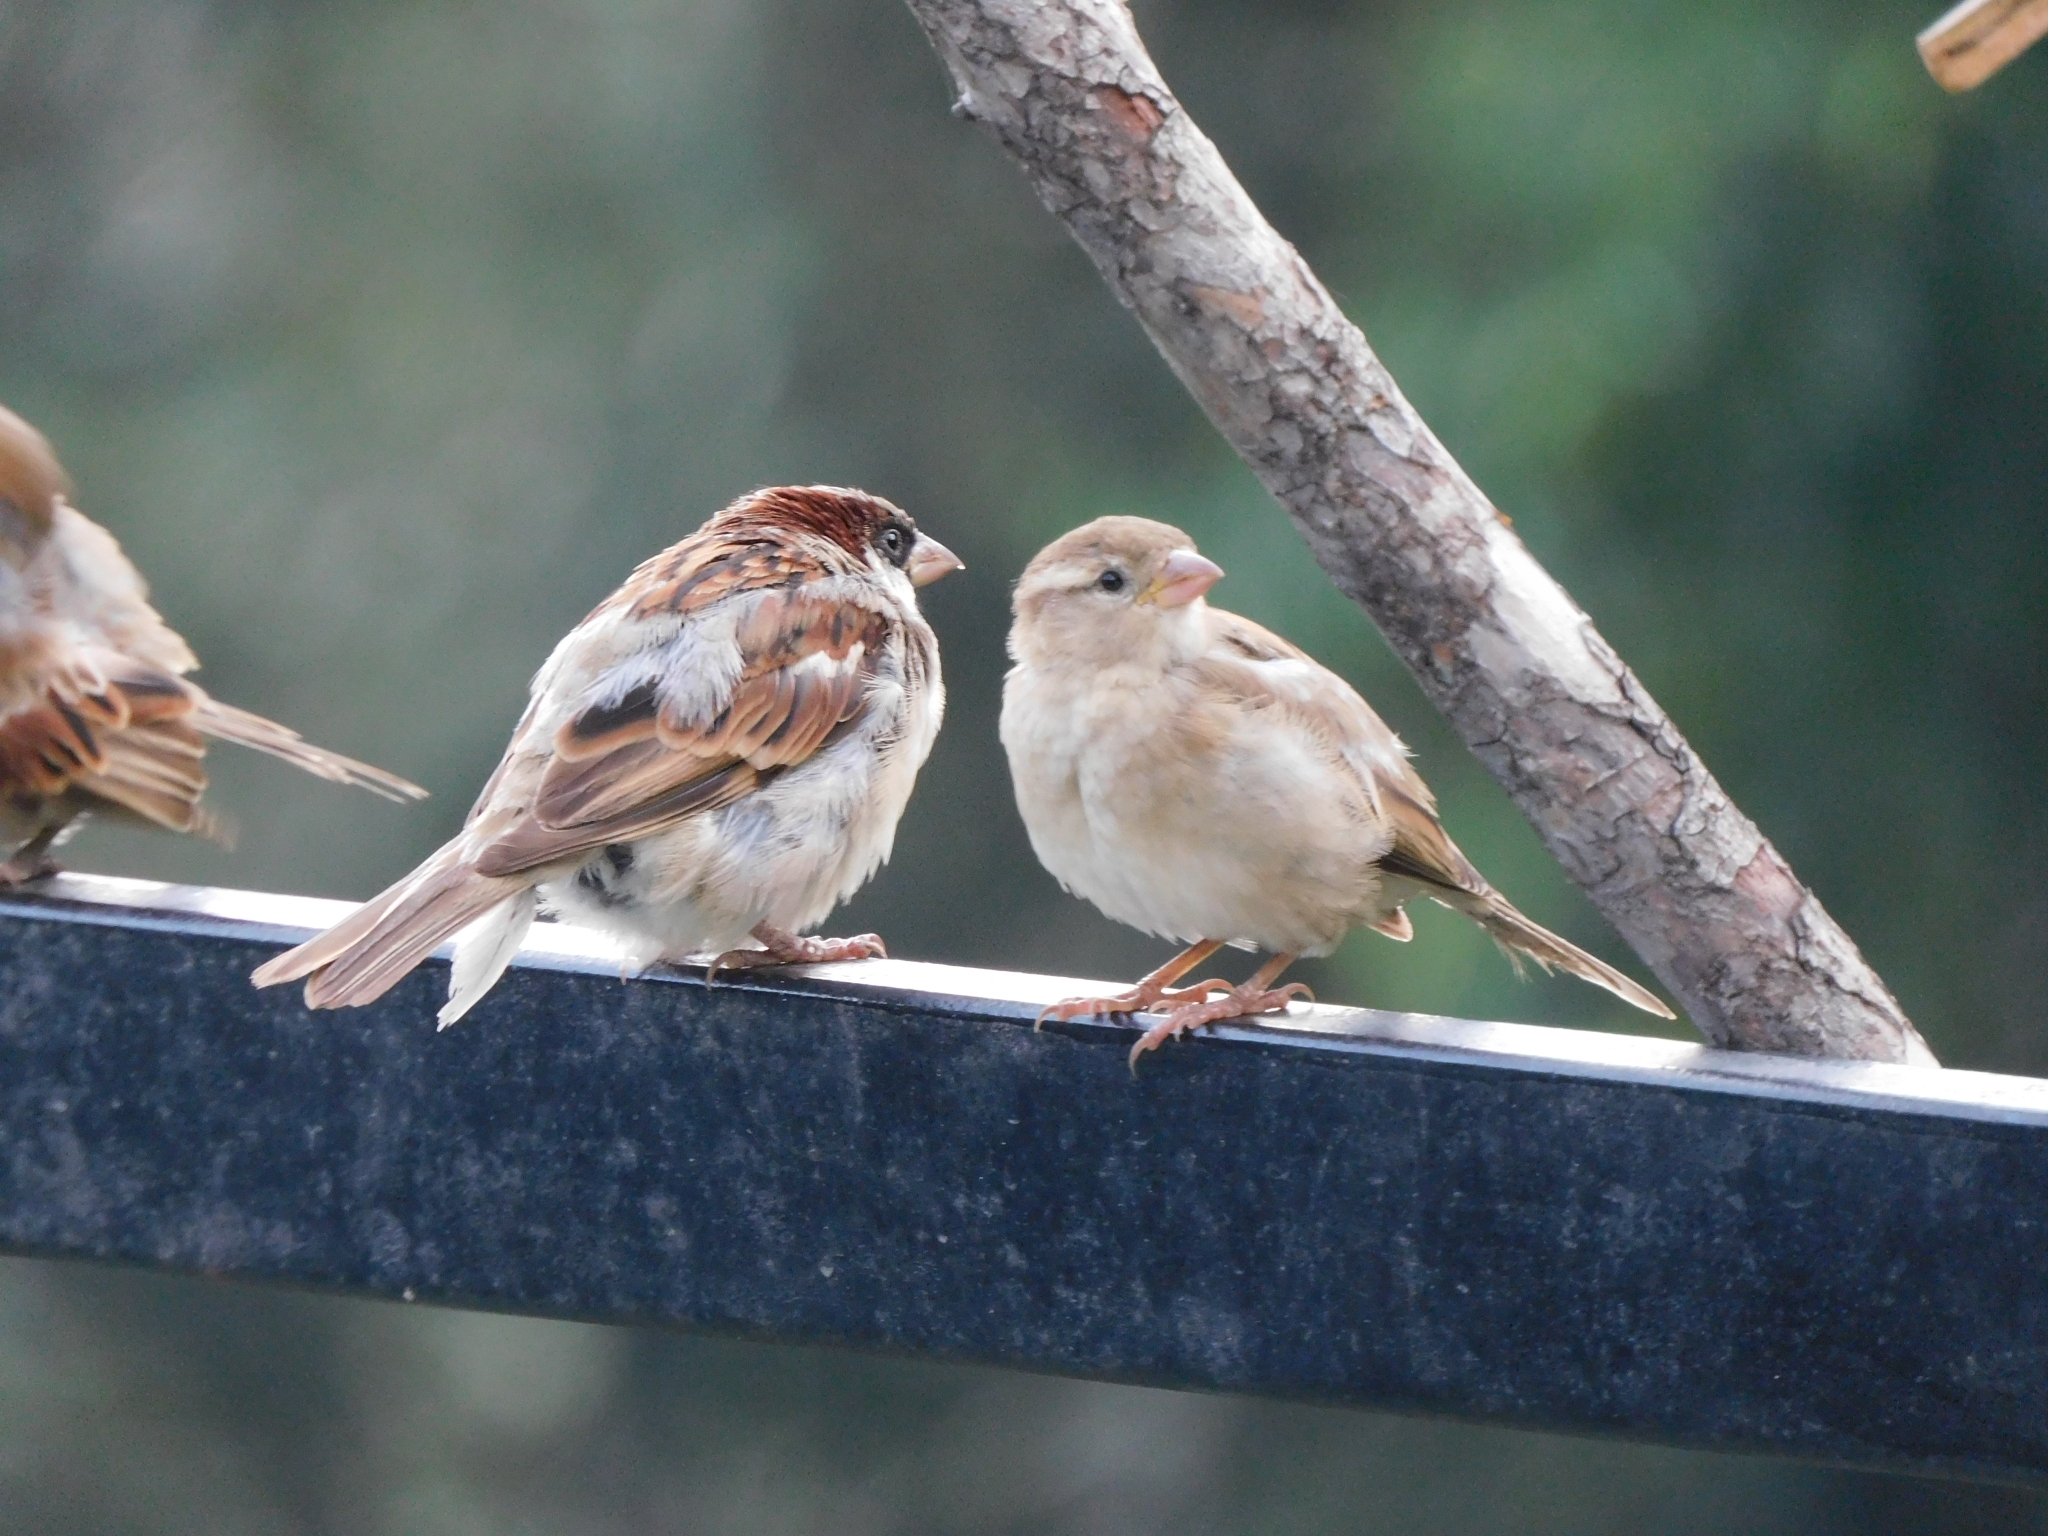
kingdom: Animalia
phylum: Chordata
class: Aves
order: Passeriformes
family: Passeridae
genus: Passer
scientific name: Passer domesticus
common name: House sparrow
